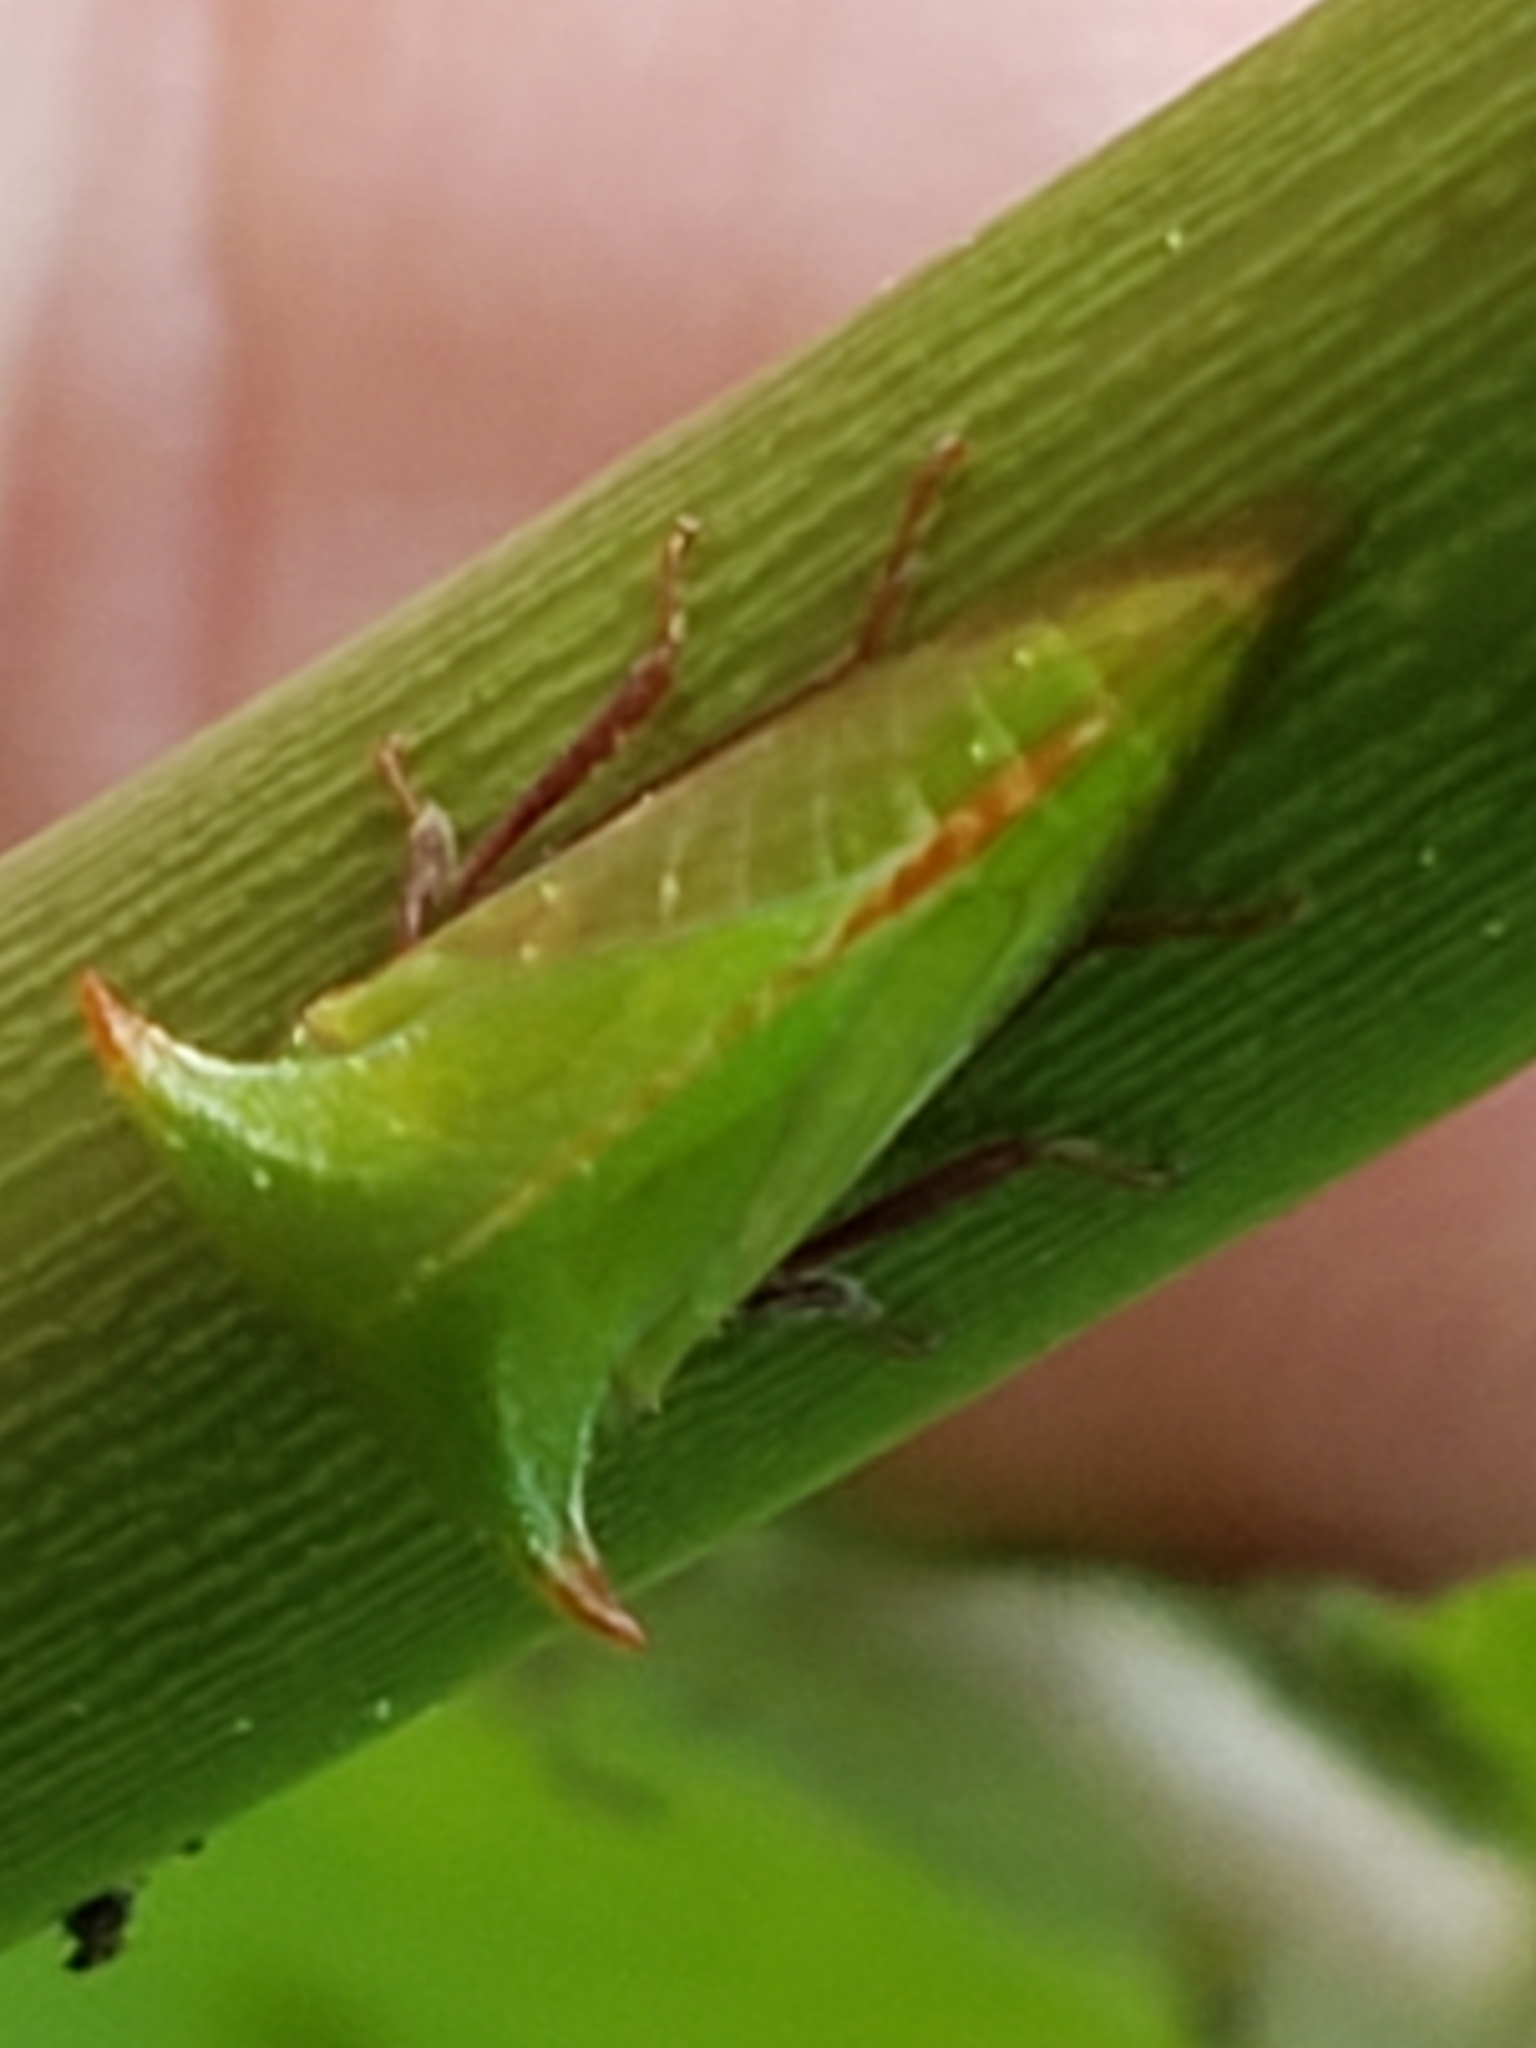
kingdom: Animalia
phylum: Arthropoda
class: Insecta
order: Hemiptera
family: Membracidae
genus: Stictocephala
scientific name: Stictocephala brevitylus
